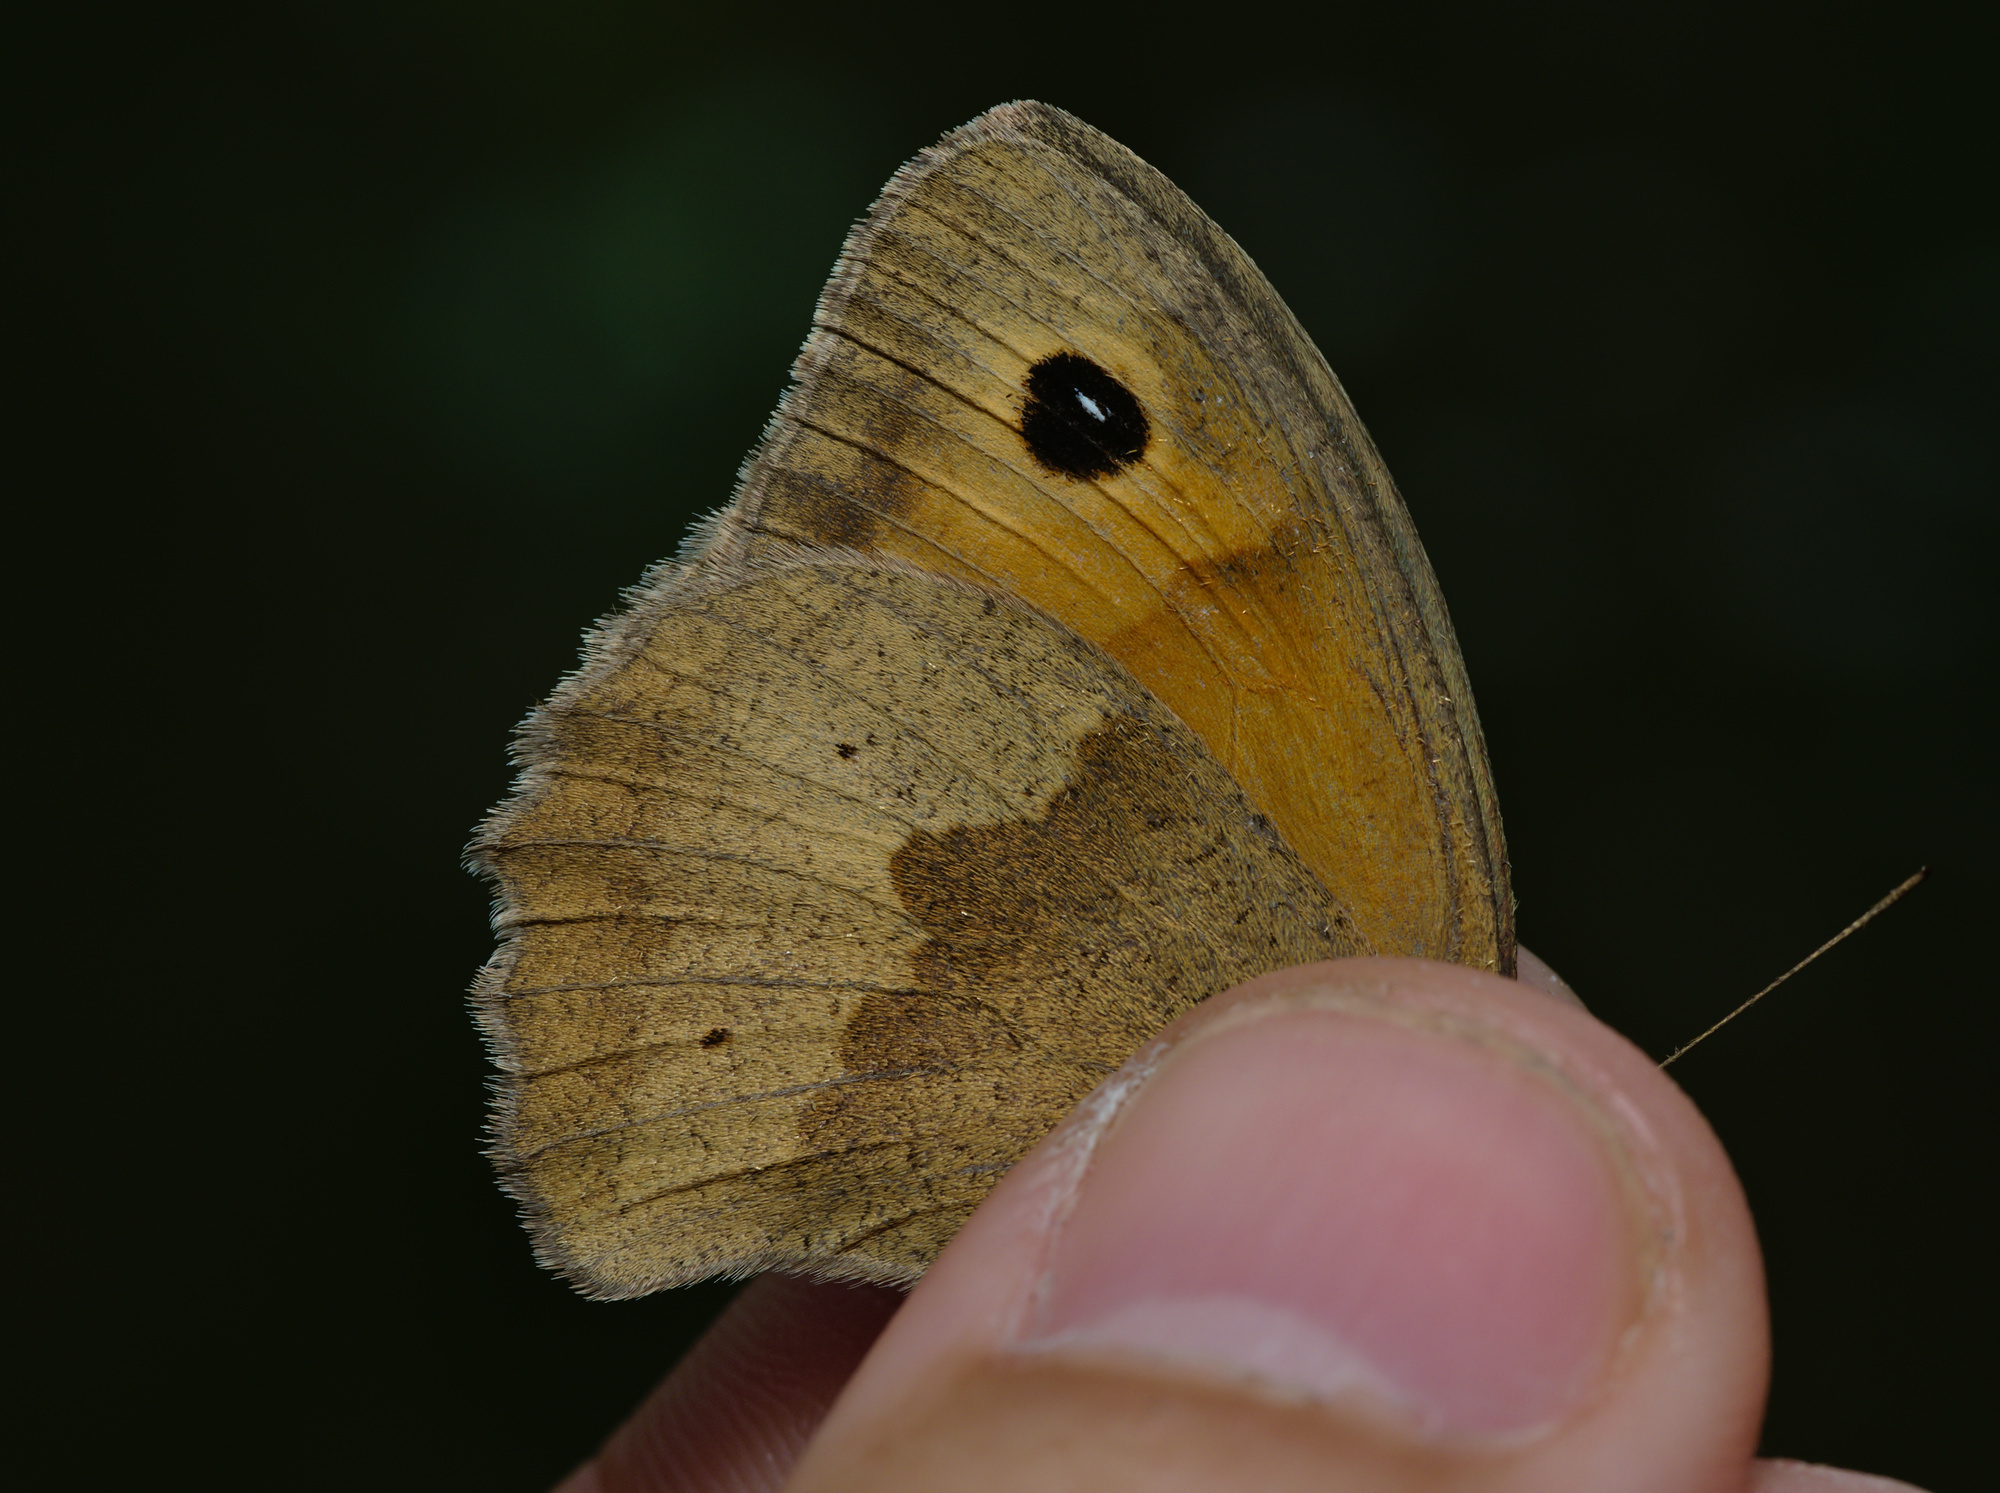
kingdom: Animalia
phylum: Arthropoda
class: Insecta
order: Lepidoptera
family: Nymphalidae
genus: Maniola
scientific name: Maniola jurtina
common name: Meadow brown
